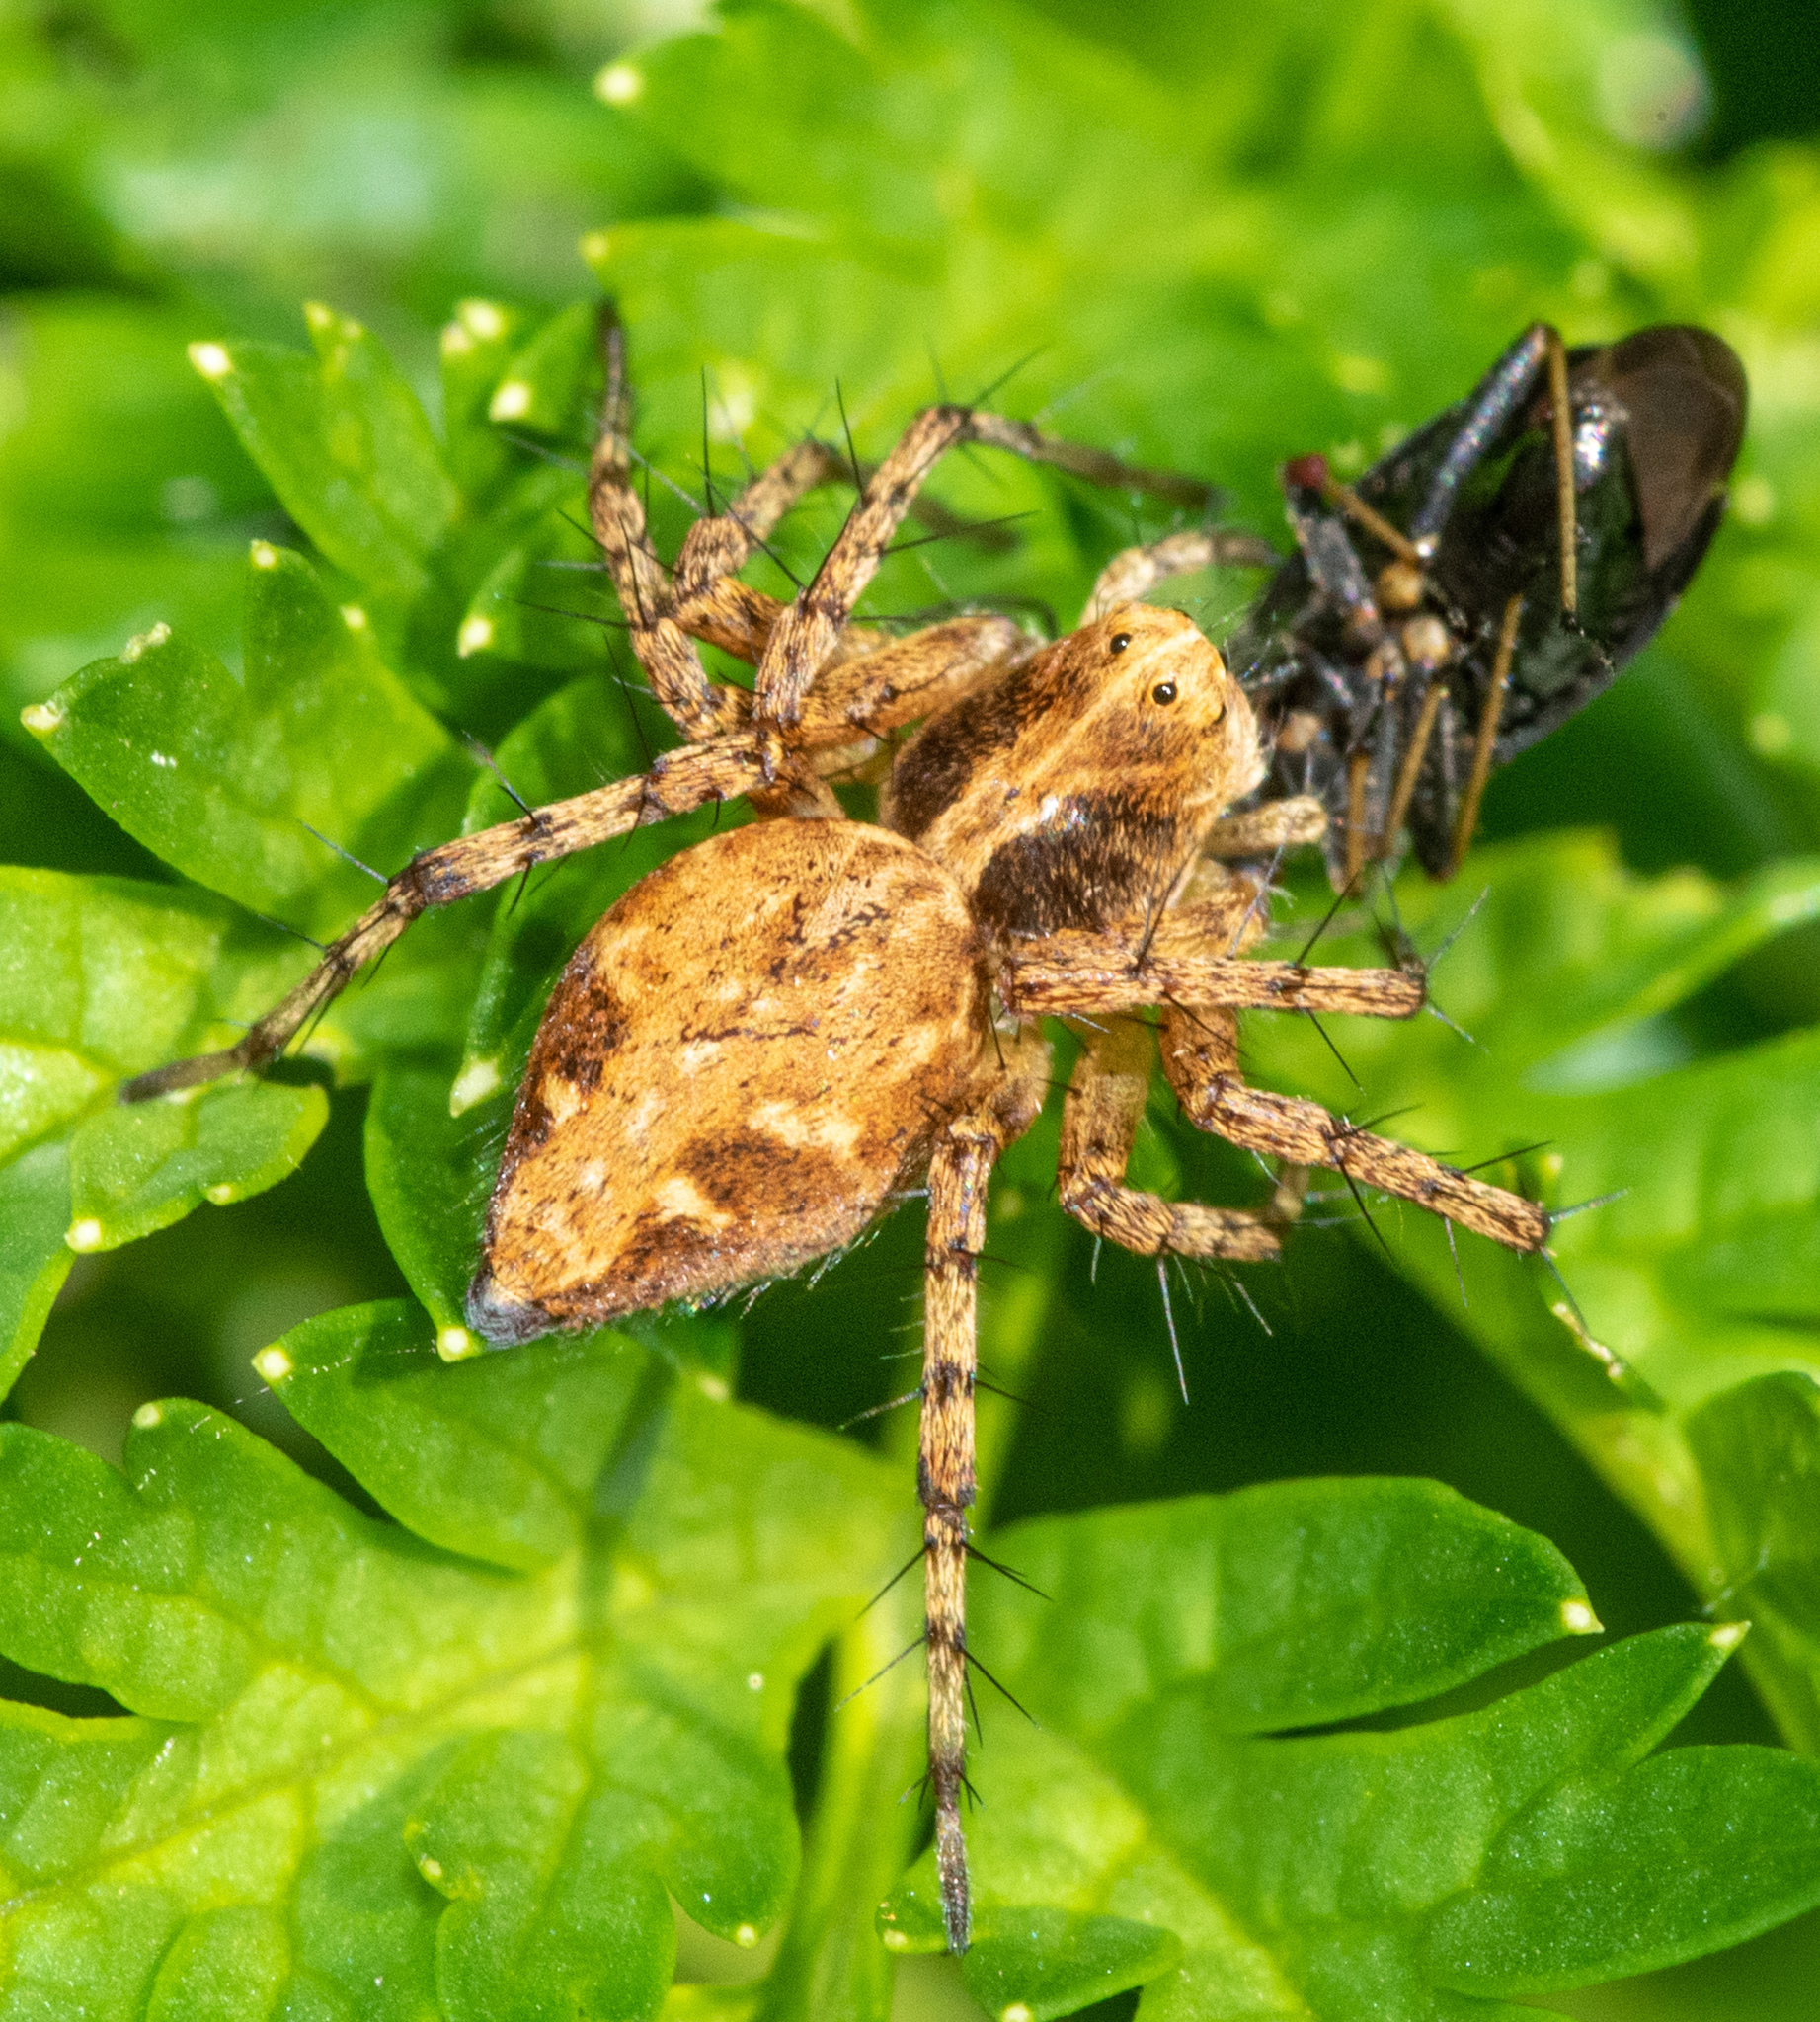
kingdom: Animalia
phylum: Arthropoda
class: Arachnida
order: Araneae
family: Oxyopidae
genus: Oxyopes
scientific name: Oxyopes scalaris
